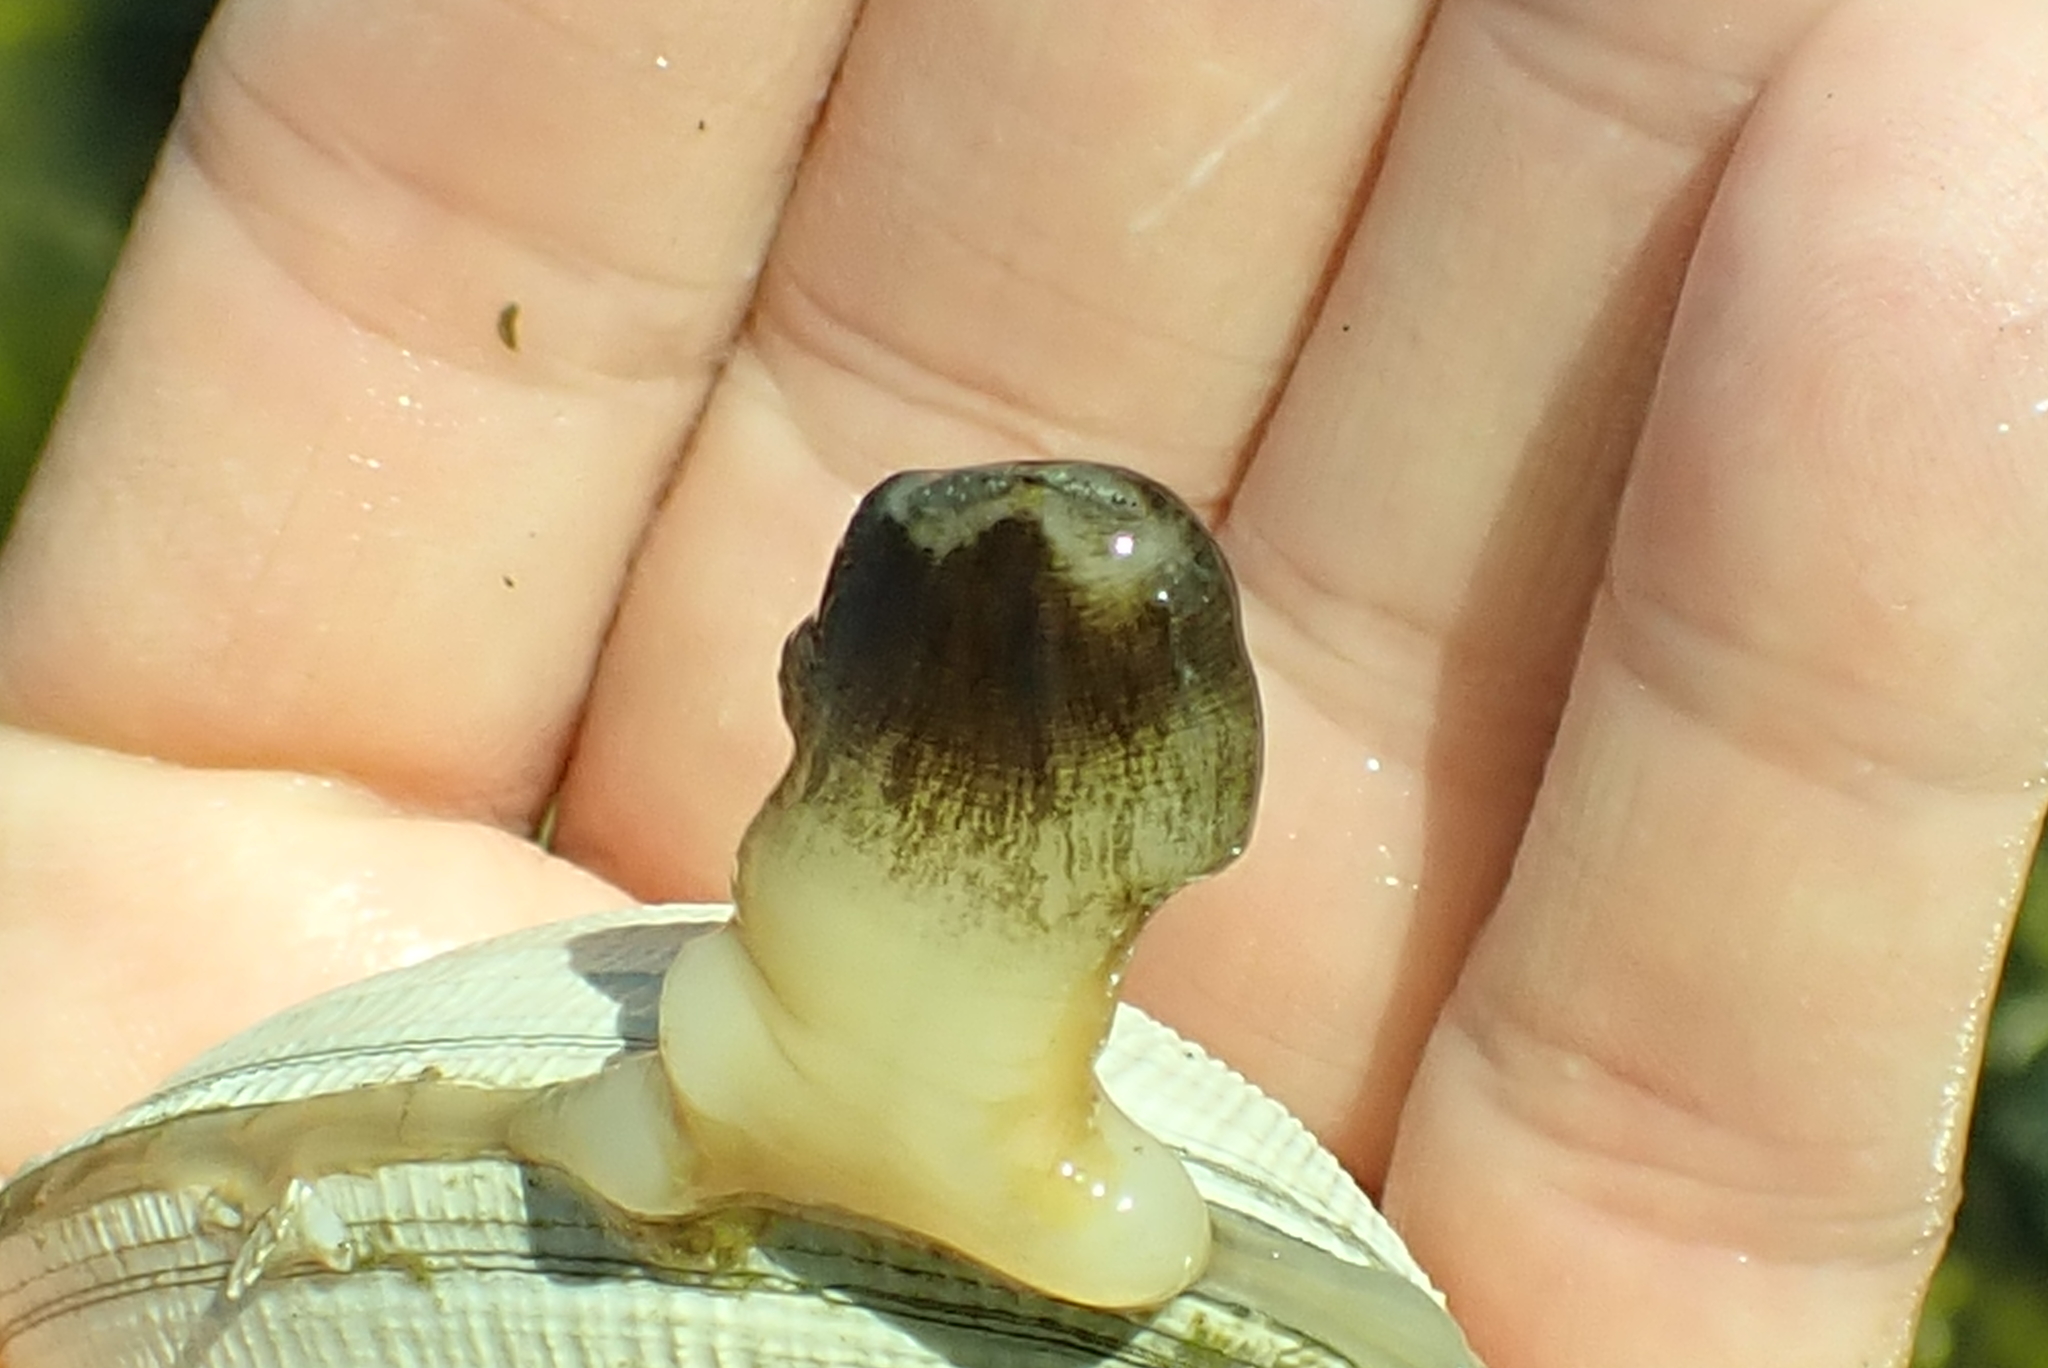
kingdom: Animalia
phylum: Mollusca
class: Bivalvia
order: Venerida
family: Veneridae
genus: Leukoma
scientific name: Leukoma staminea
